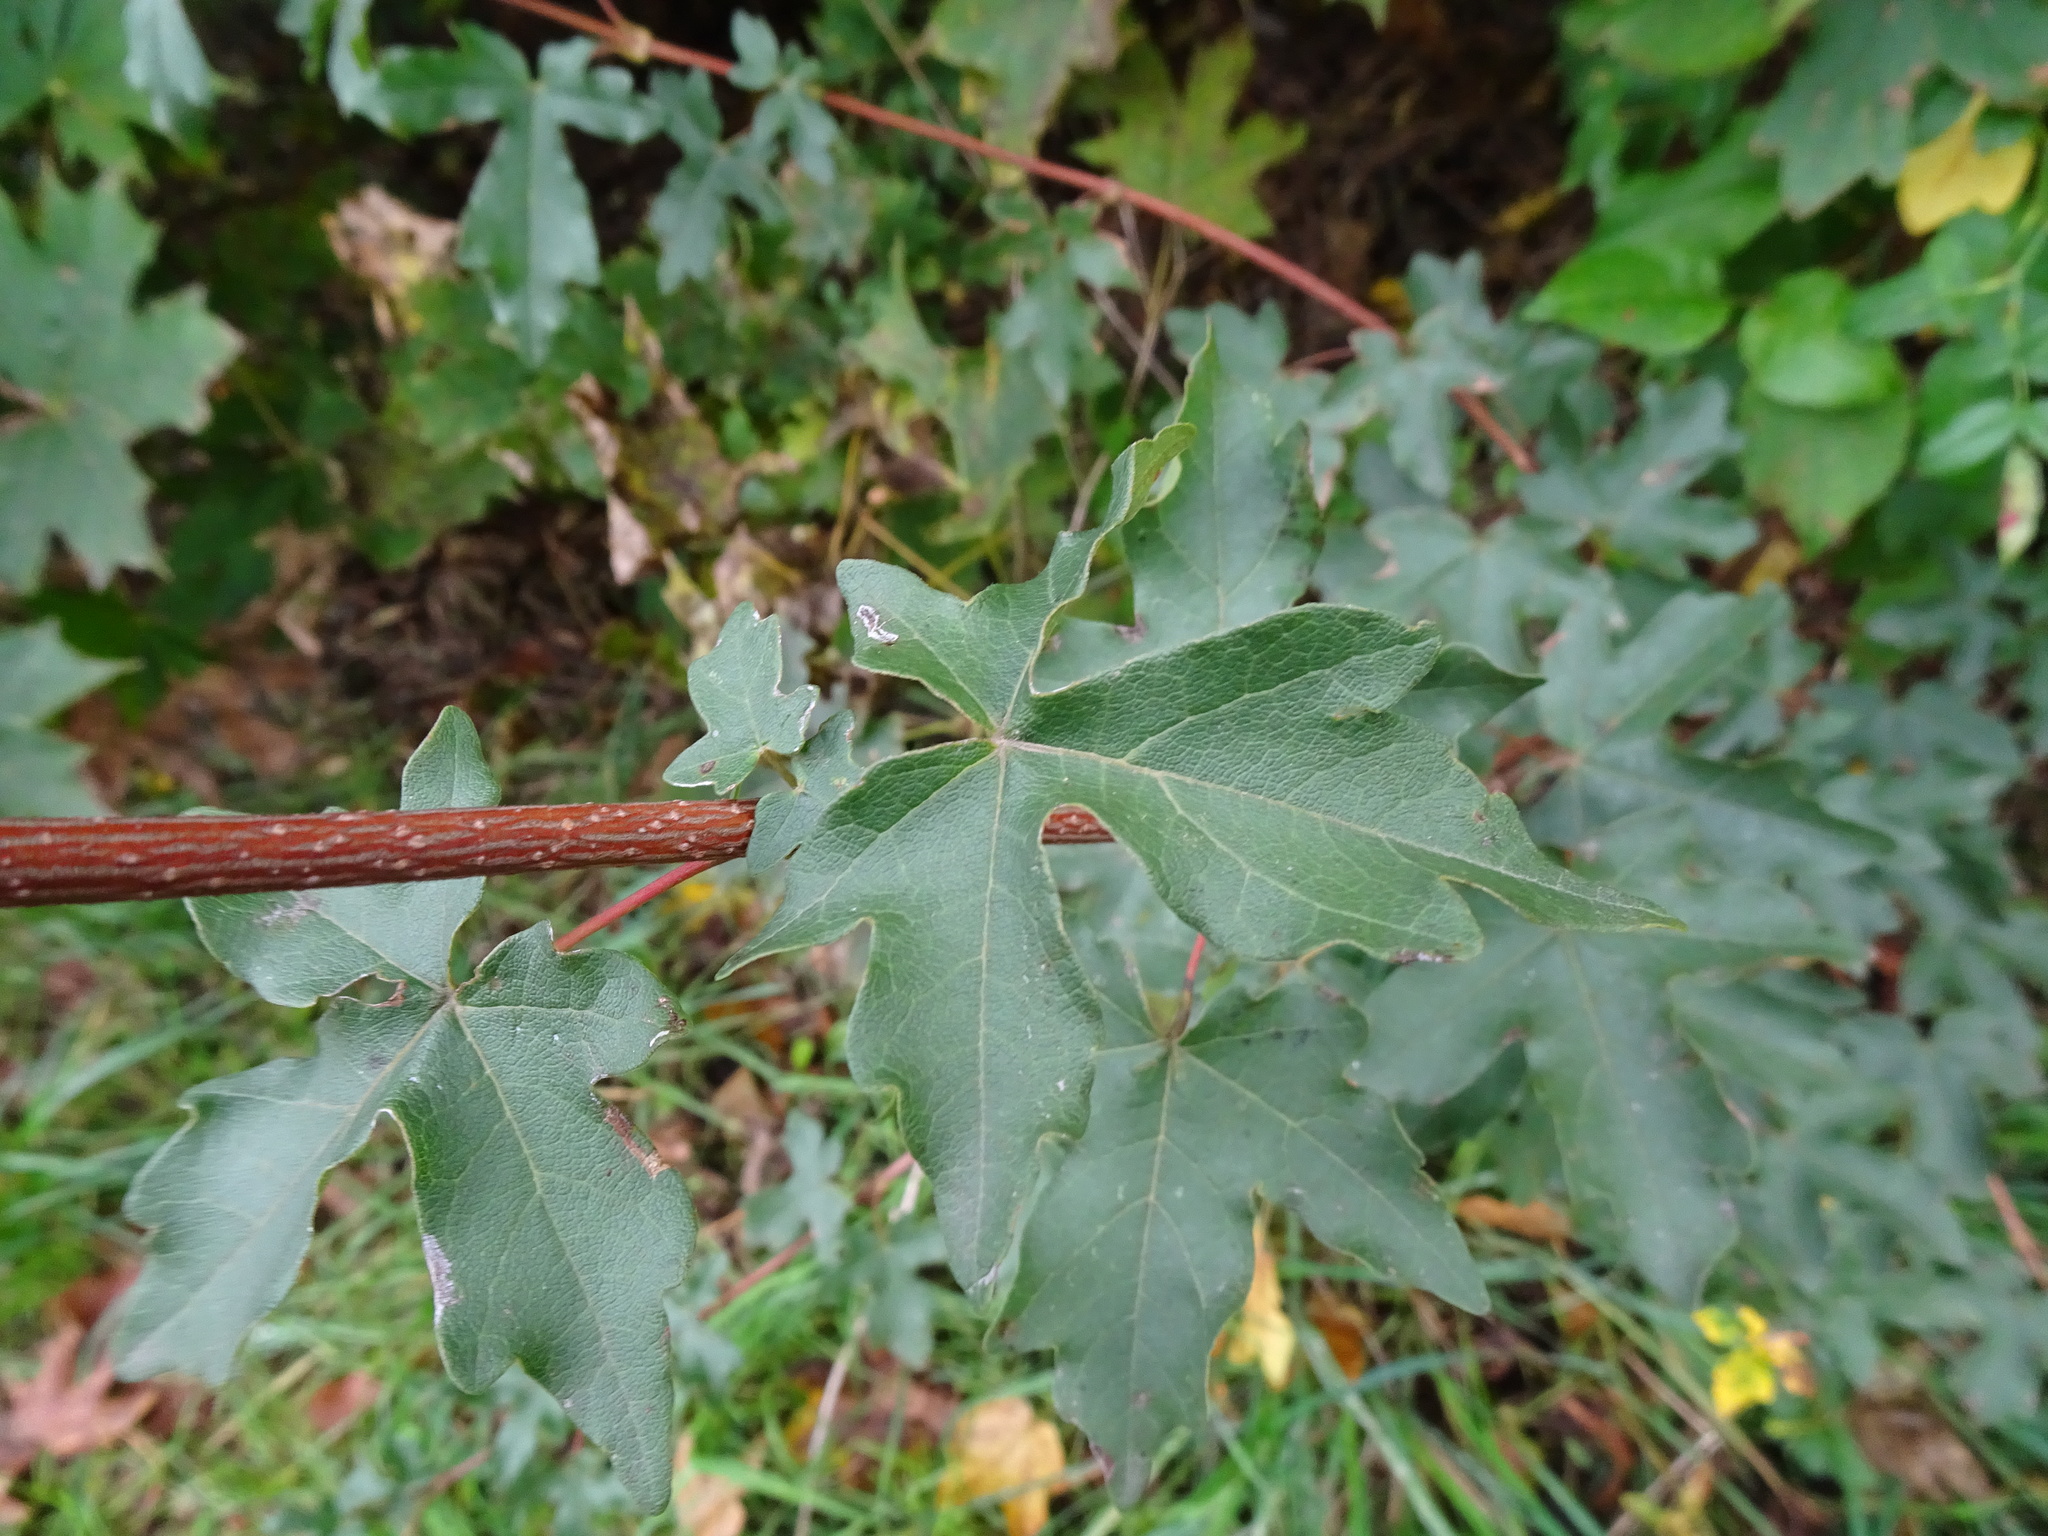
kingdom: Plantae
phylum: Tracheophyta
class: Magnoliopsida
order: Sapindales
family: Sapindaceae
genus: Acer
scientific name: Acer campestre
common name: Field maple
